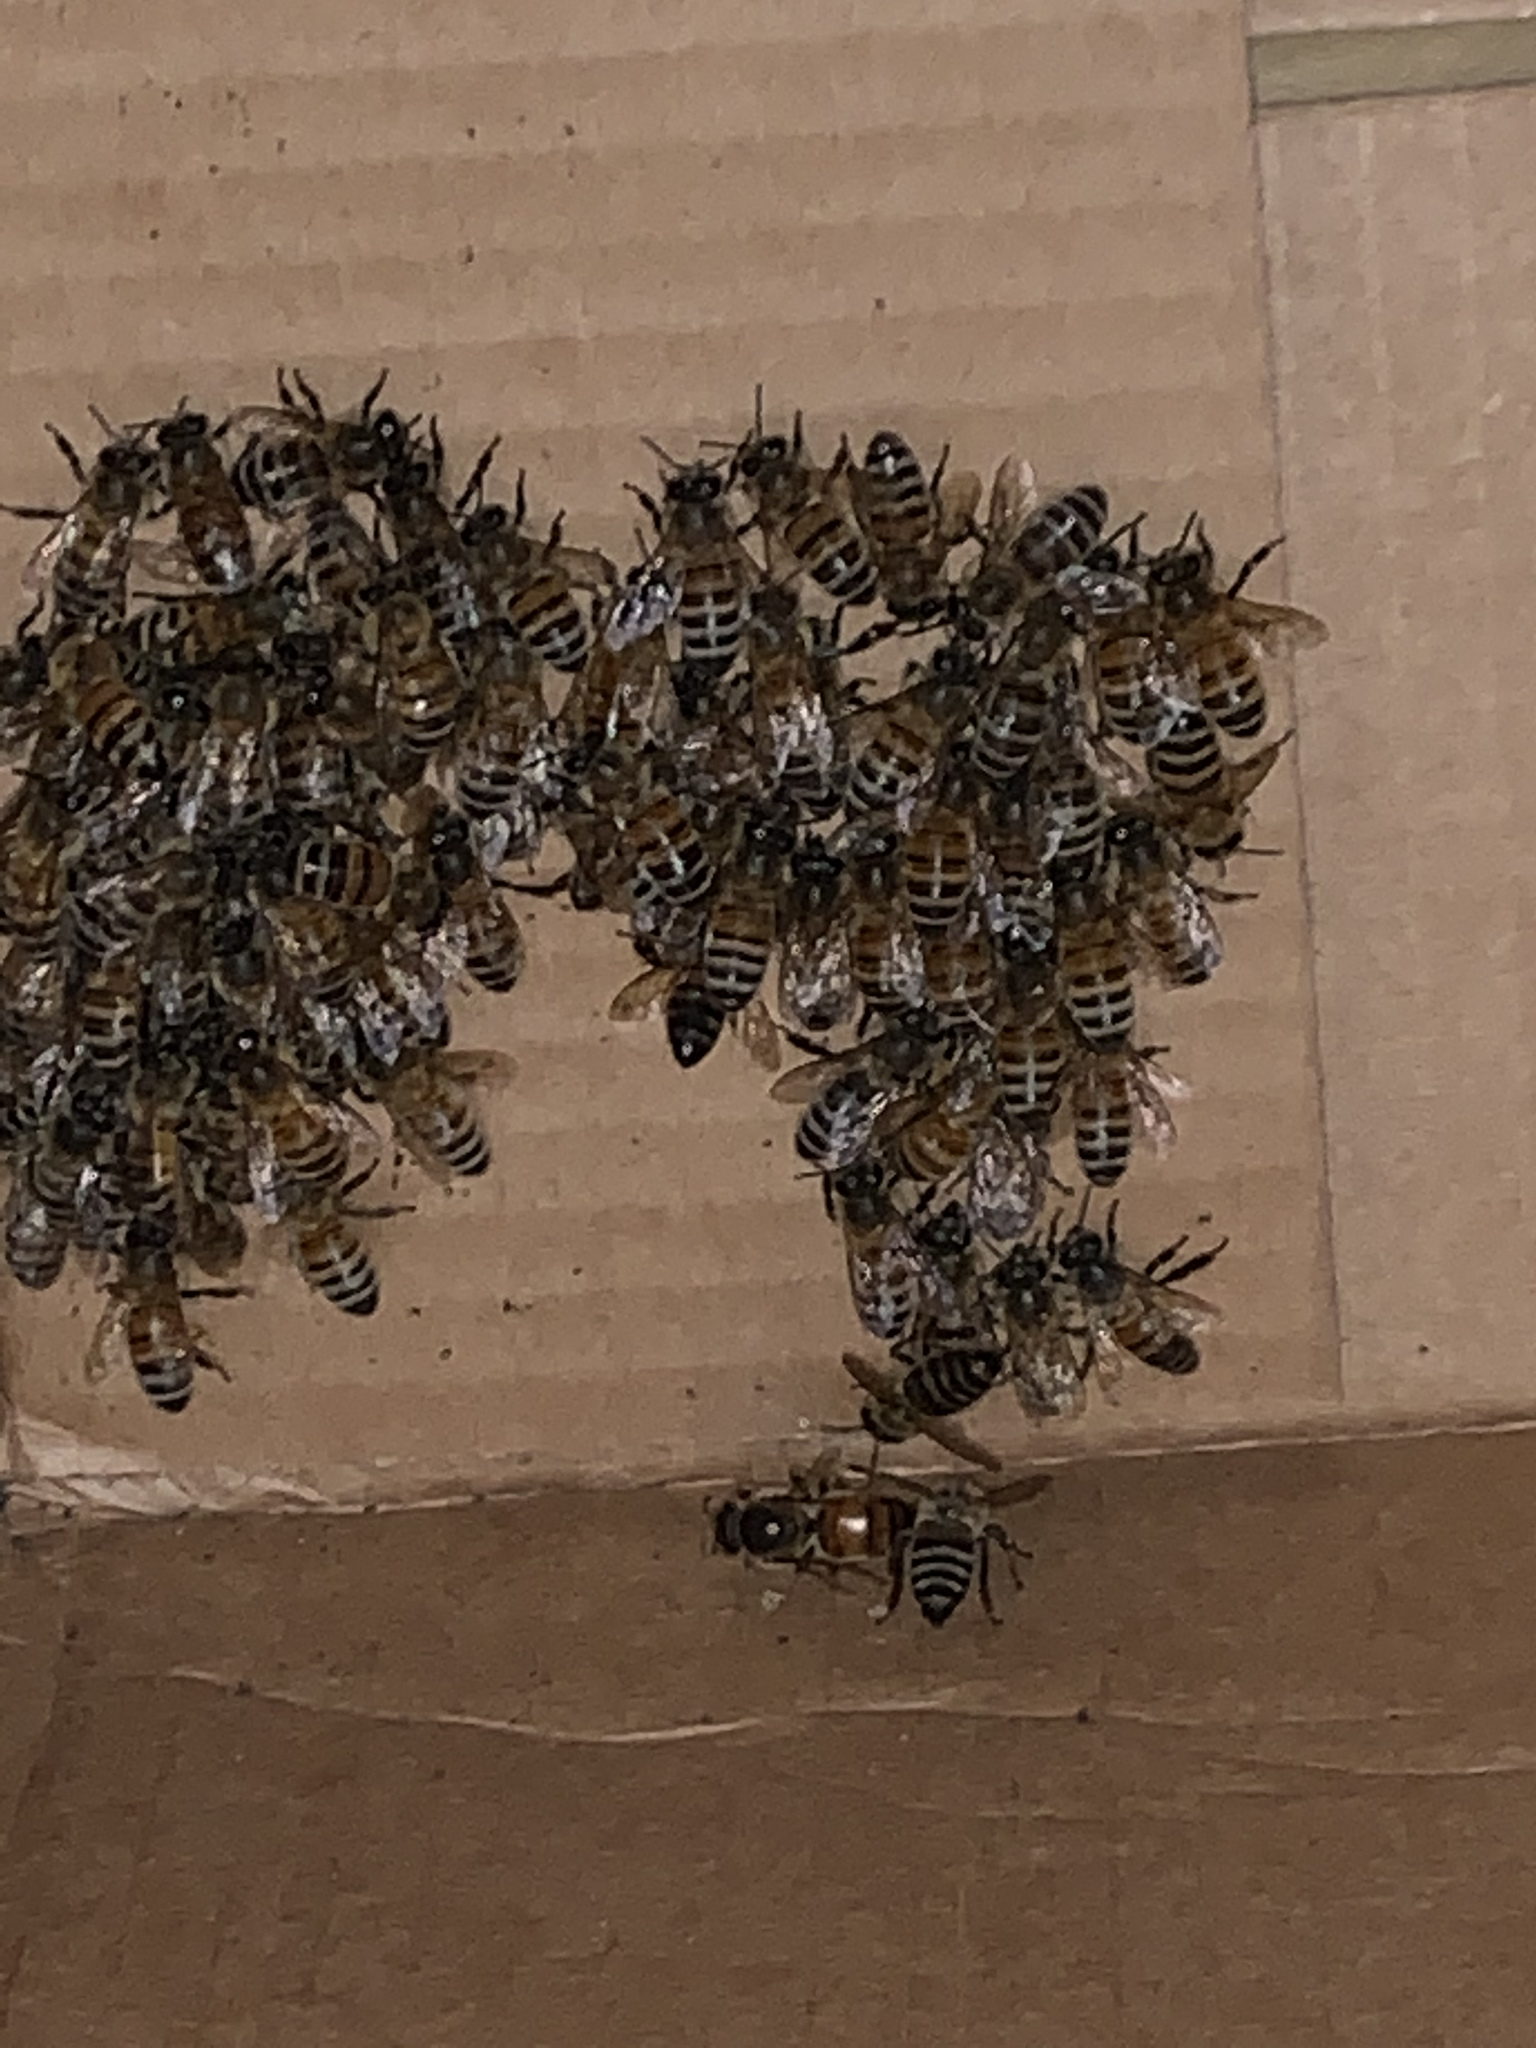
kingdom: Animalia
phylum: Arthropoda
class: Insecta
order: Hymenoptera
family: Apidae
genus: Apis
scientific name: Apis mellifera
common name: Honey bee
